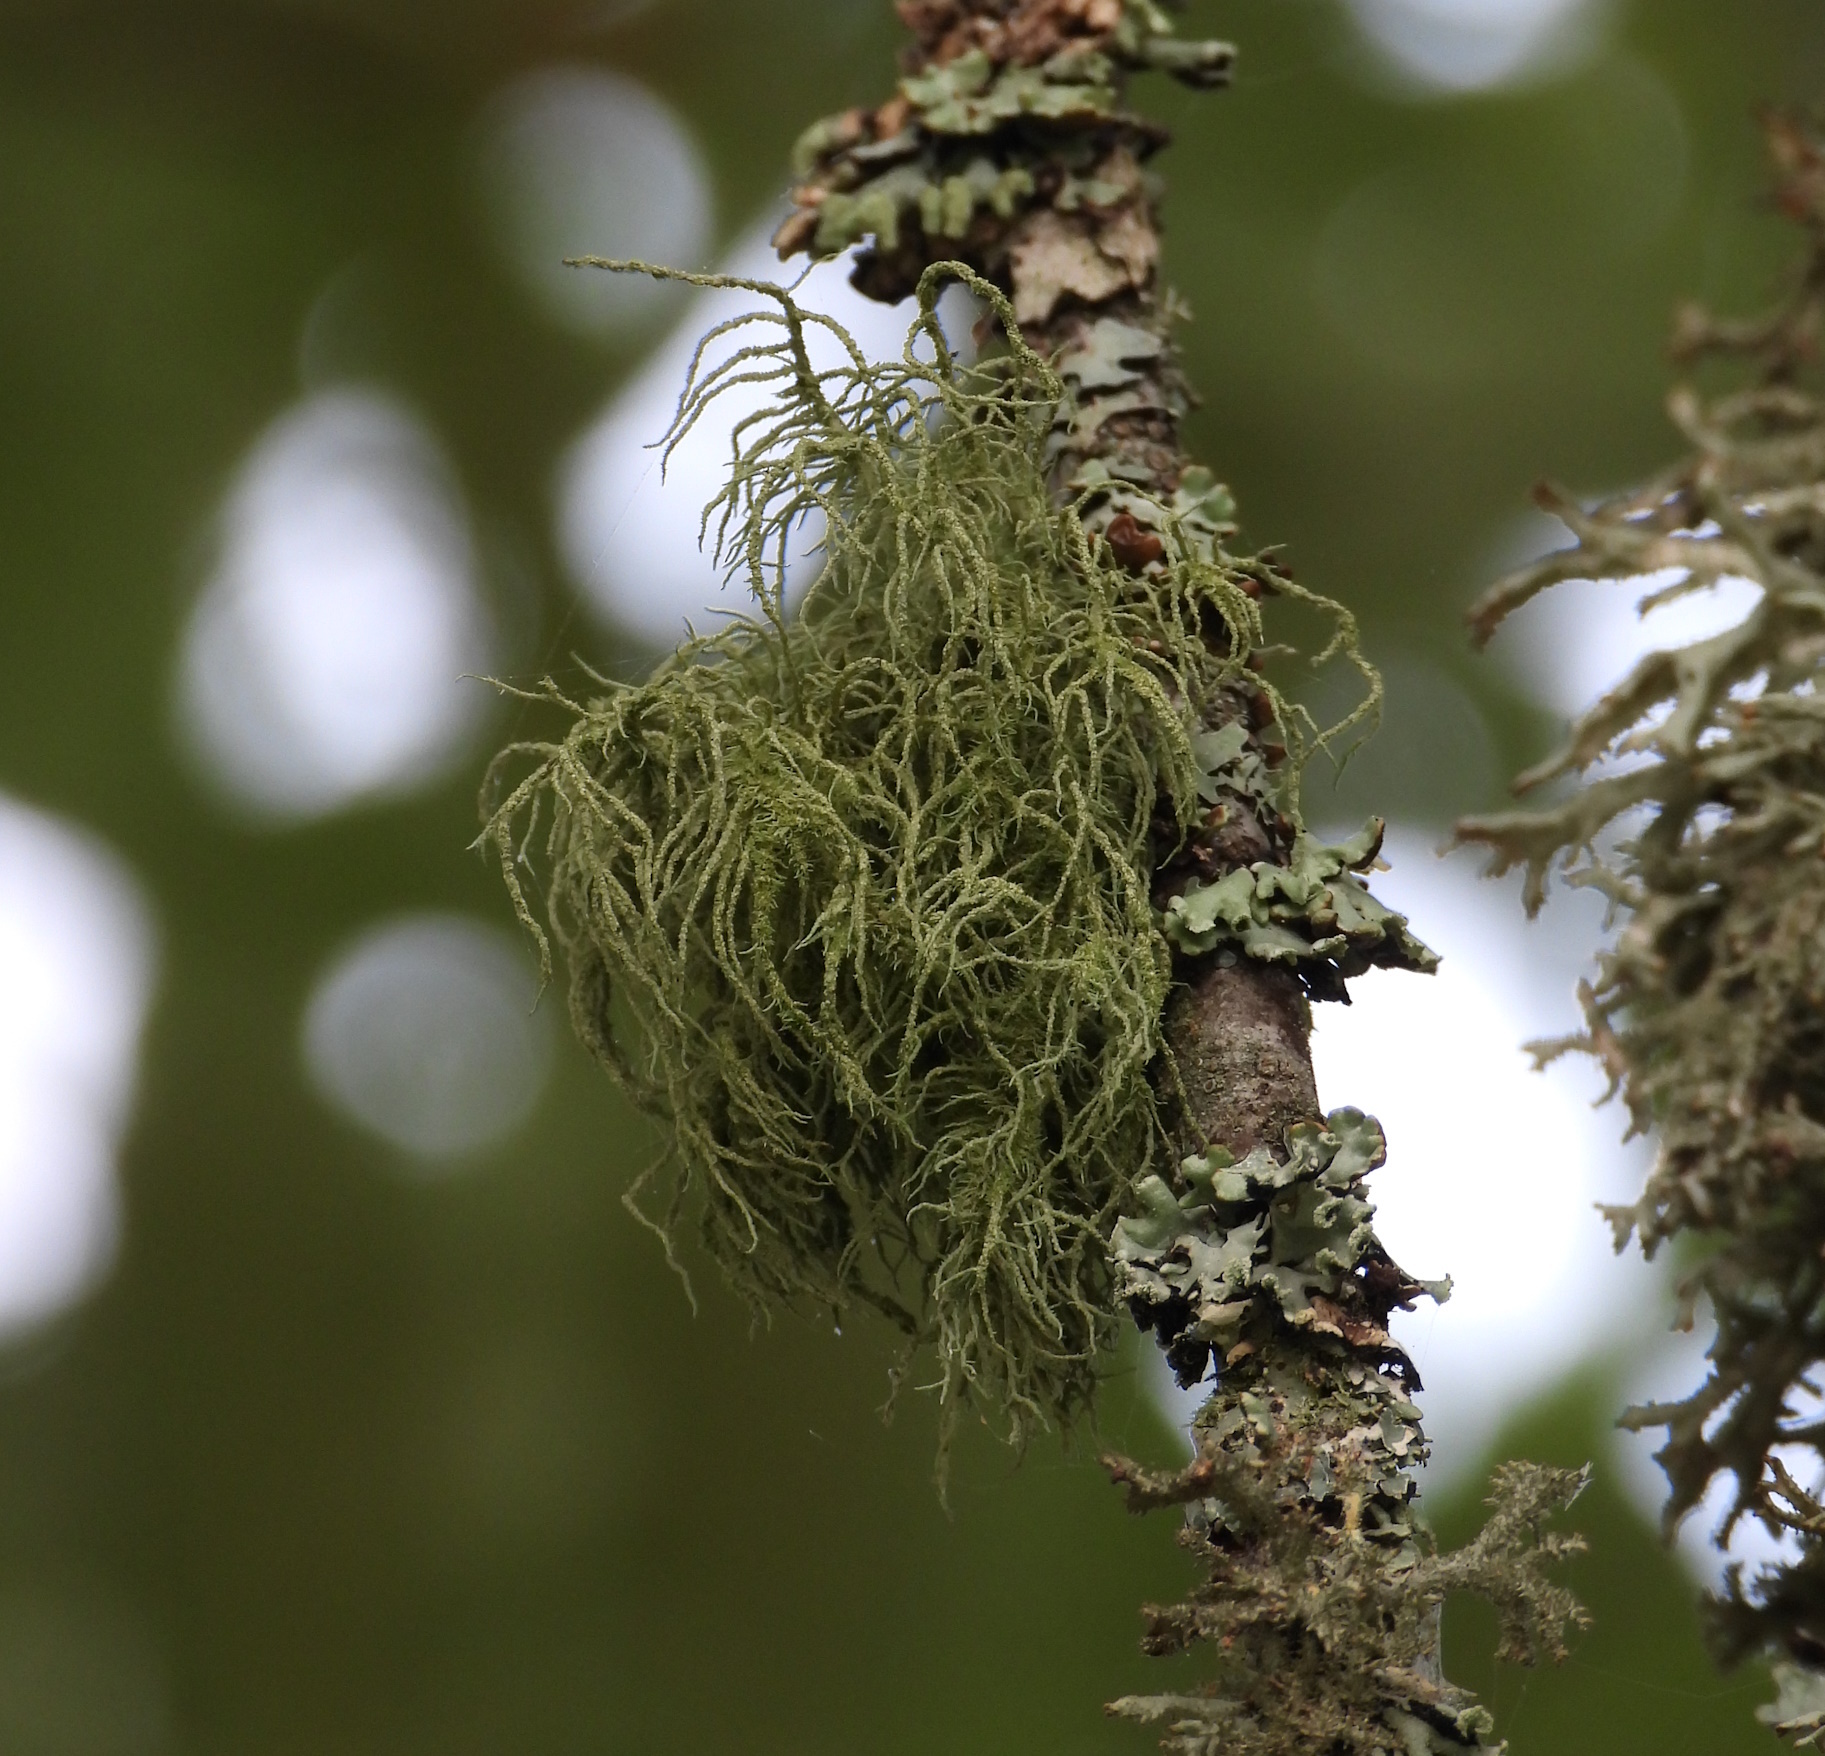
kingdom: Fungi
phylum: Ascomycota
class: Lecanoromycetes
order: Lecanorales
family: Parmeliaceae
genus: Usnea
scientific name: Usnea hirta
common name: Bristly beard lichen
